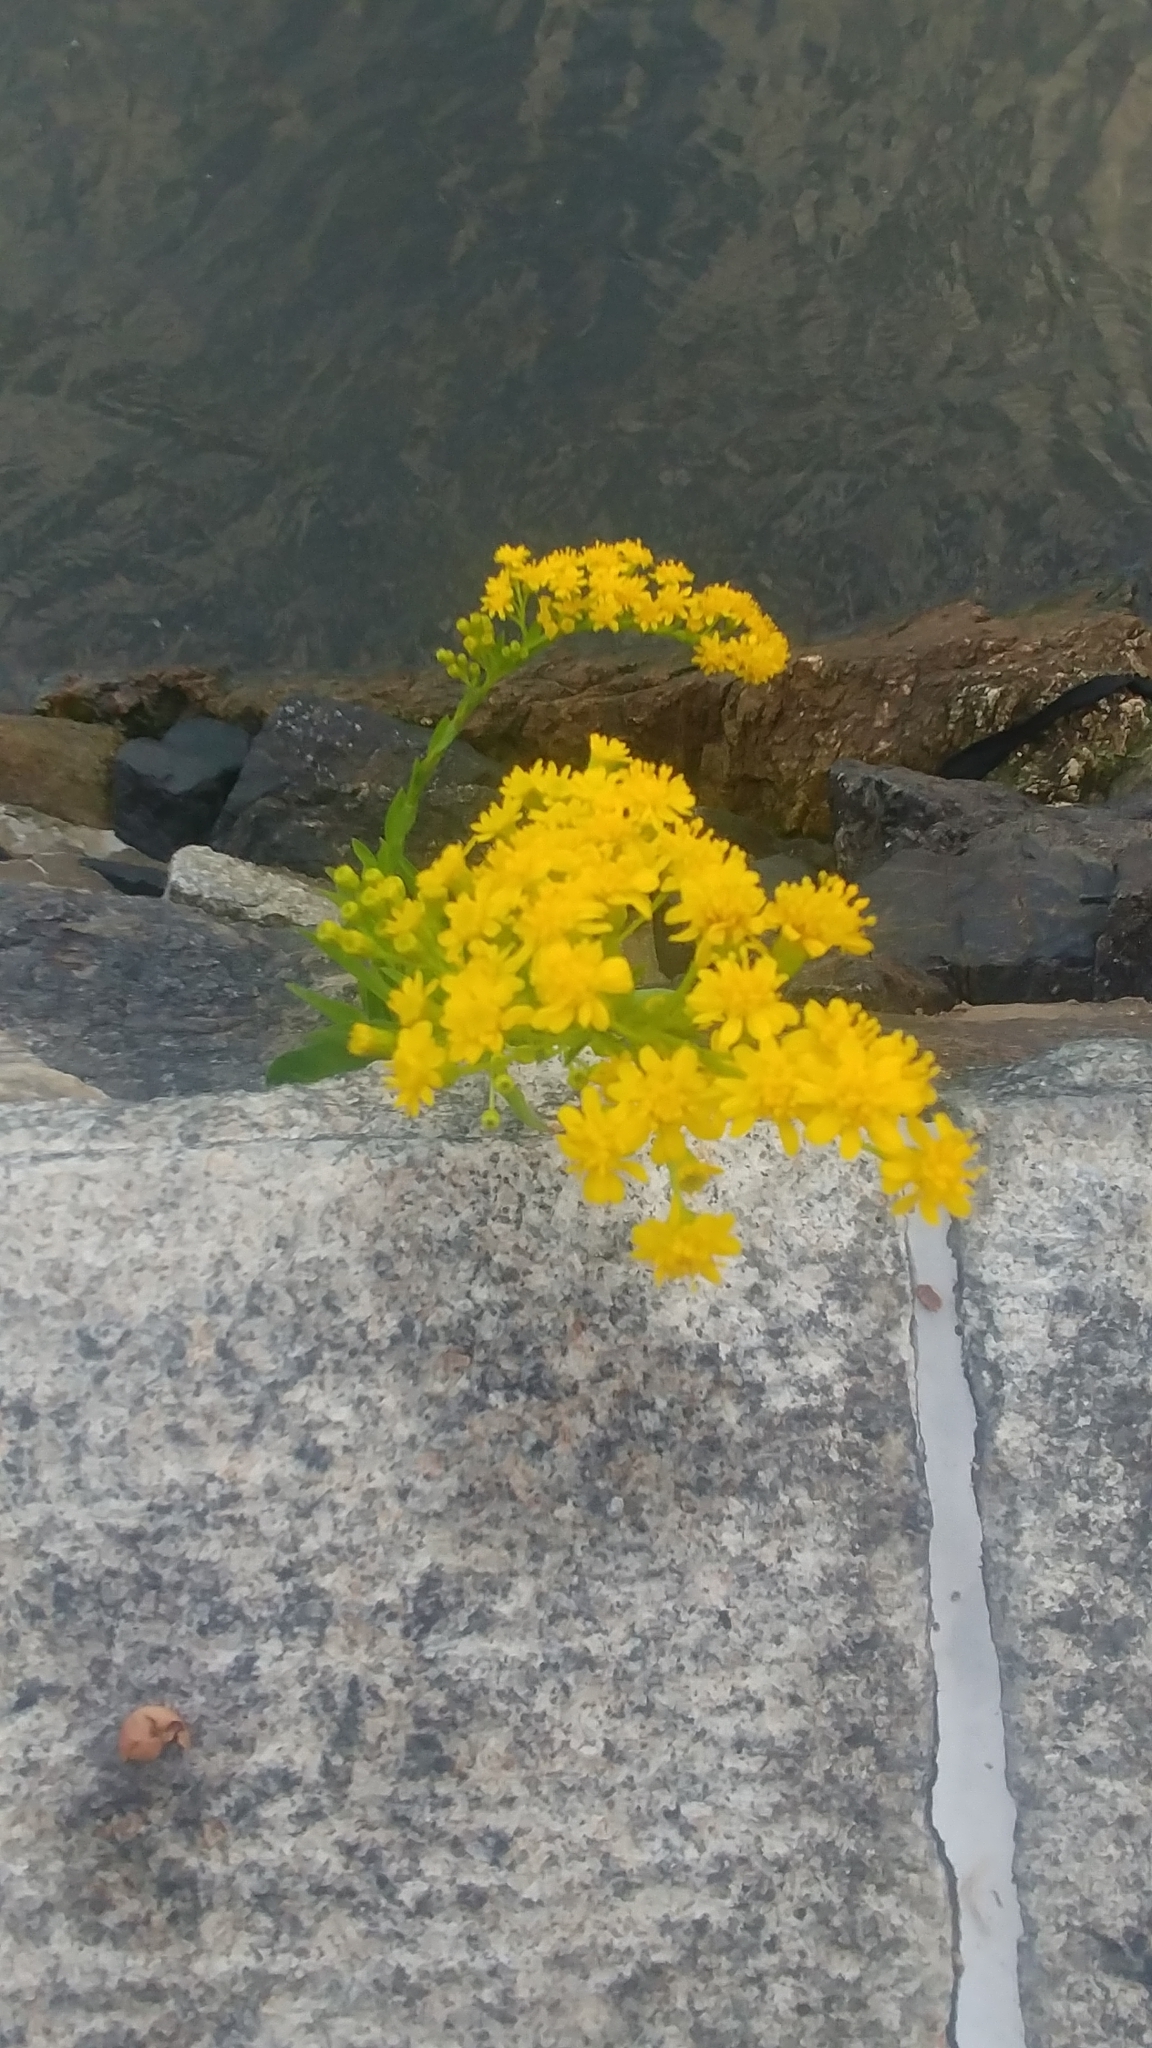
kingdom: Plantae
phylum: Tracheophyta
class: Magnoliopsida
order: Asterales
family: Asteraceae
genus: Solidago
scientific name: Solidago sempervirens
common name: Salt-marsh goldenrod
